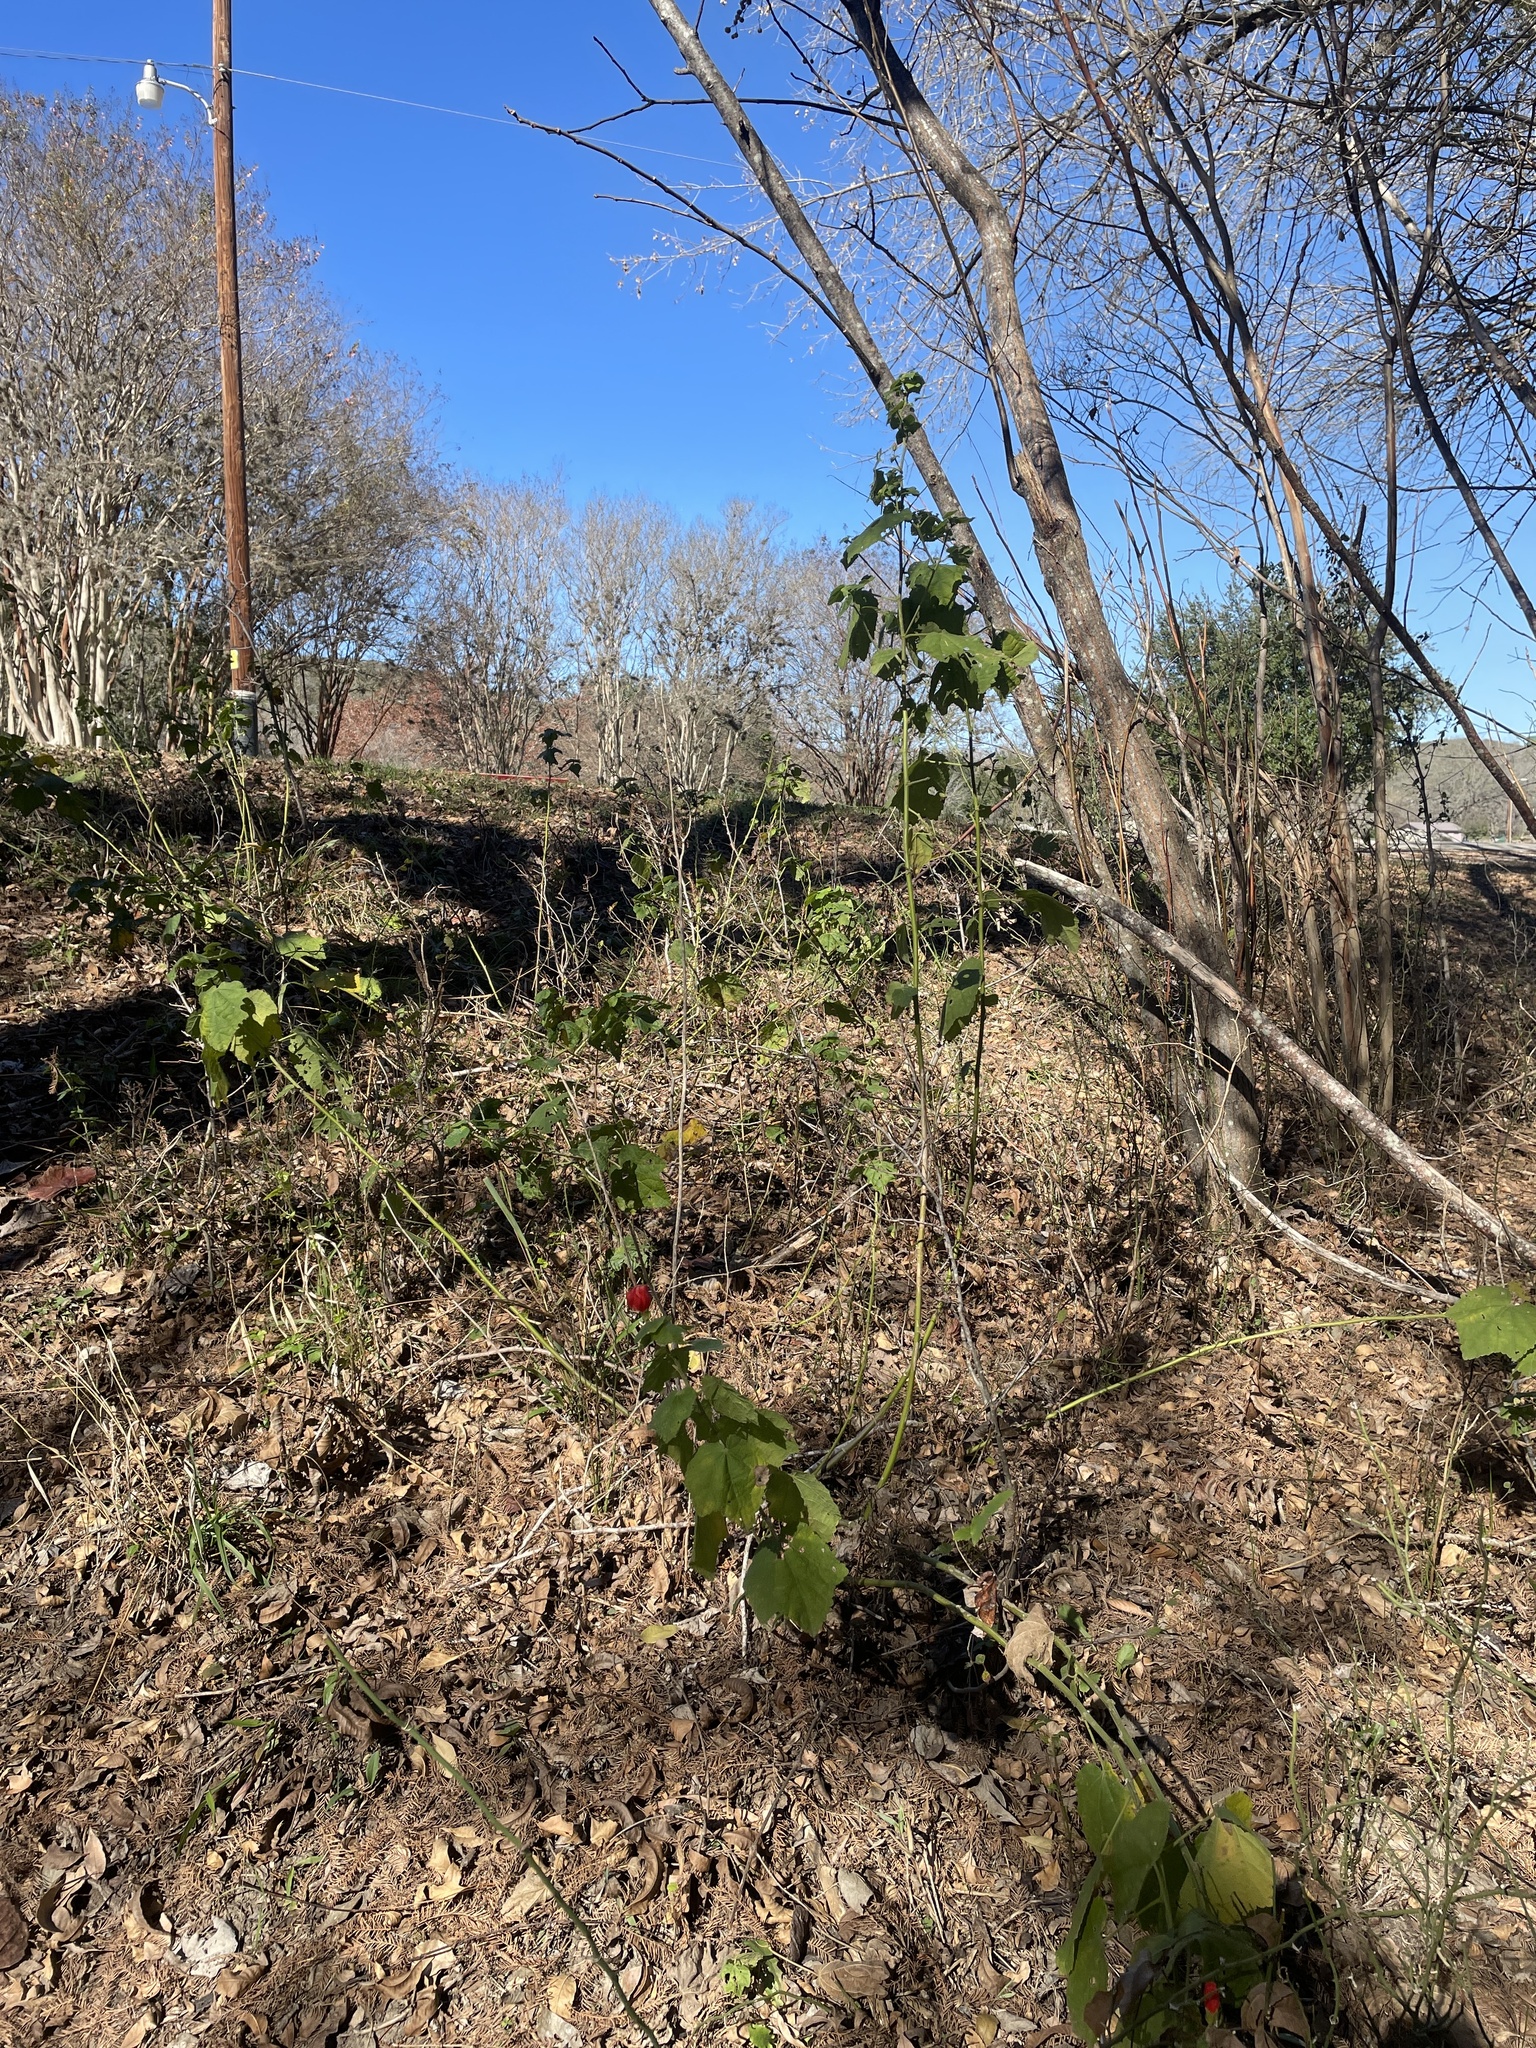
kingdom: Plantae
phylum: Tracheophyta
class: Magnoliopsida
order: Malvales
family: Malvaceae
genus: Malvaviscus
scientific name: Malvaviscus arboreus
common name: Wax mallow
